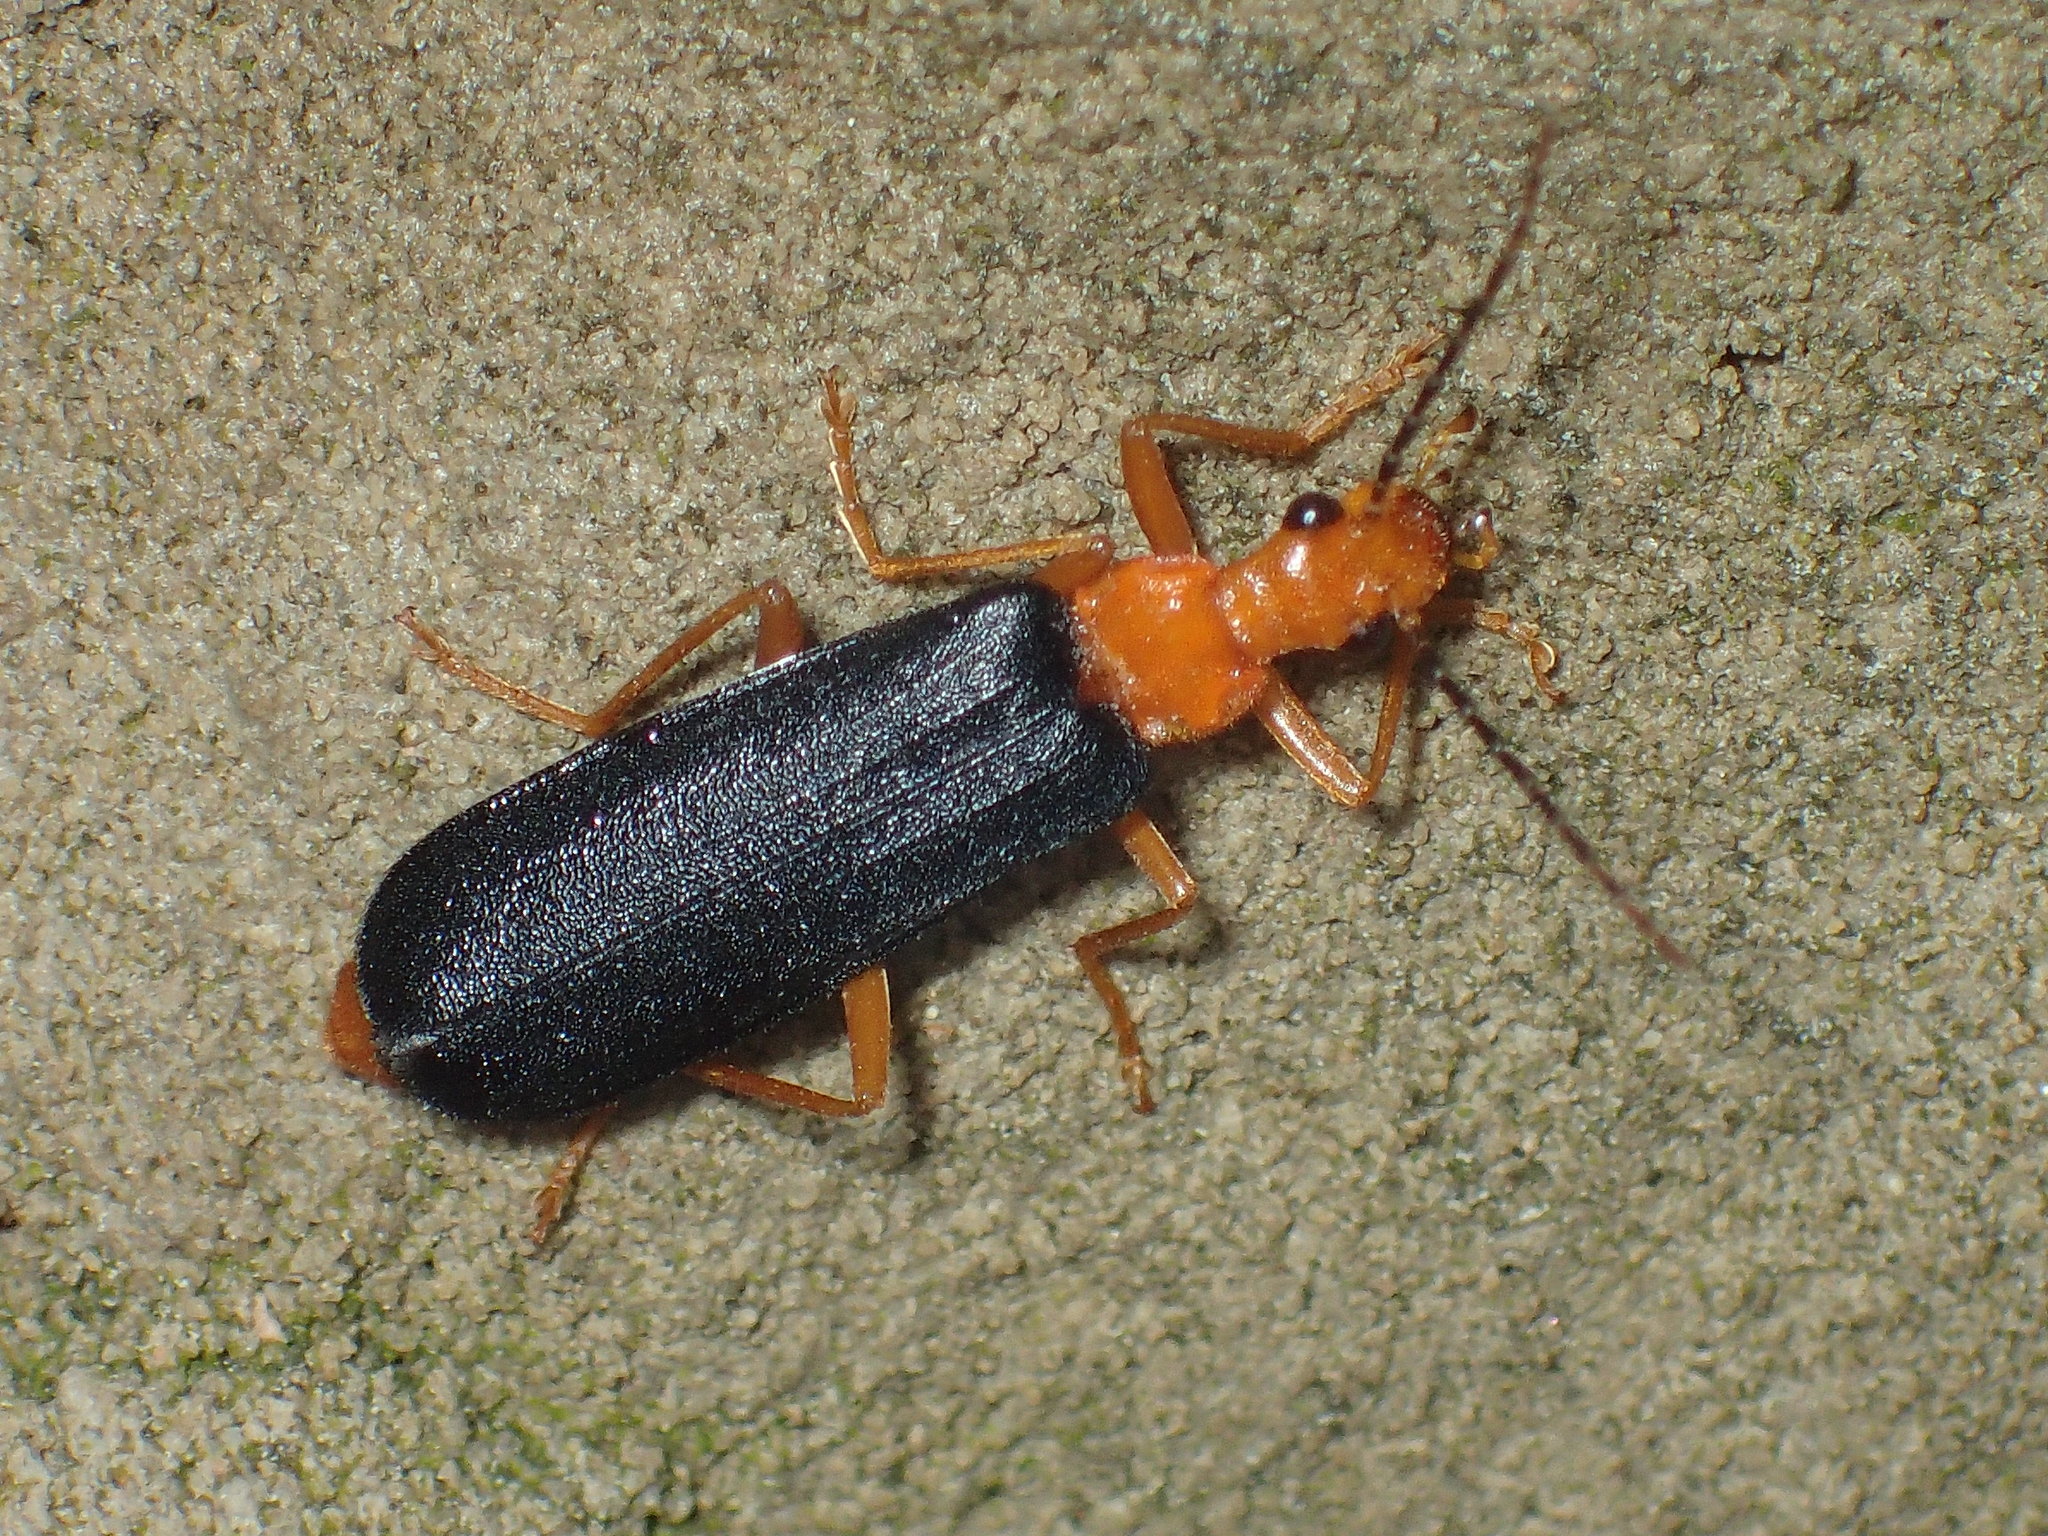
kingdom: Animalia
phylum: Arthropoda
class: Insecta
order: Coleoptera
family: Cantharidae
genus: Podabrus
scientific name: Podabrus fayi
